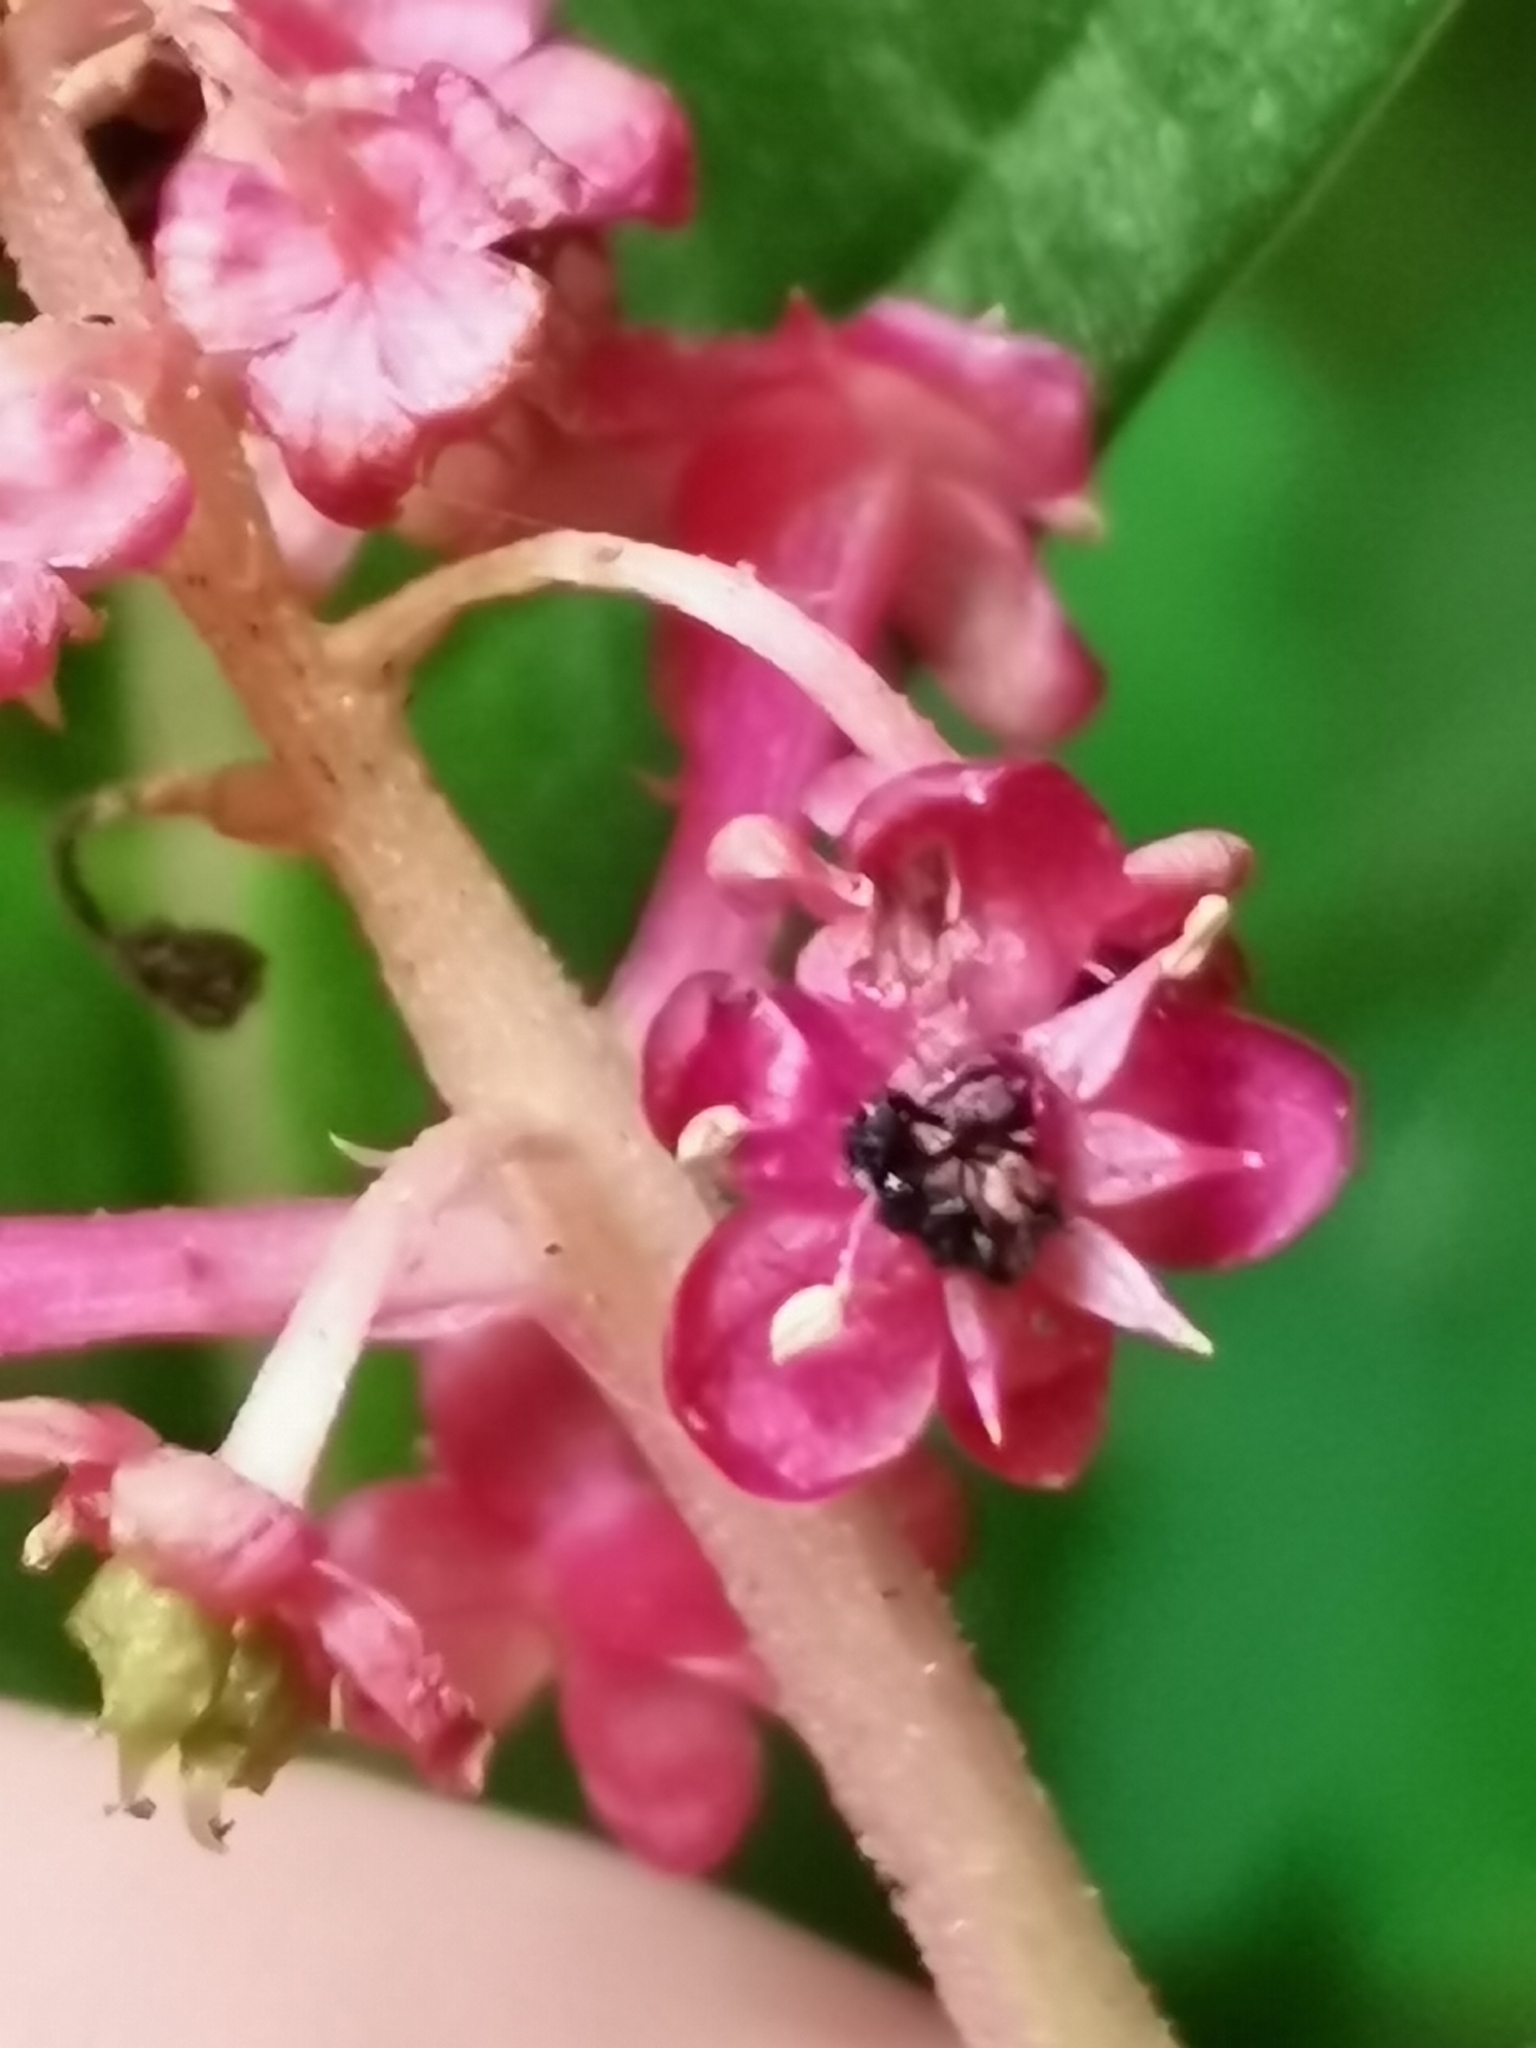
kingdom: Plantae
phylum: Tracheophyta
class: Magnoliopsida
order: Caryophyllales
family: Phytolaccaceae
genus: Phytolacca
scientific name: Phytolacca americana
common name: American pokeweed
